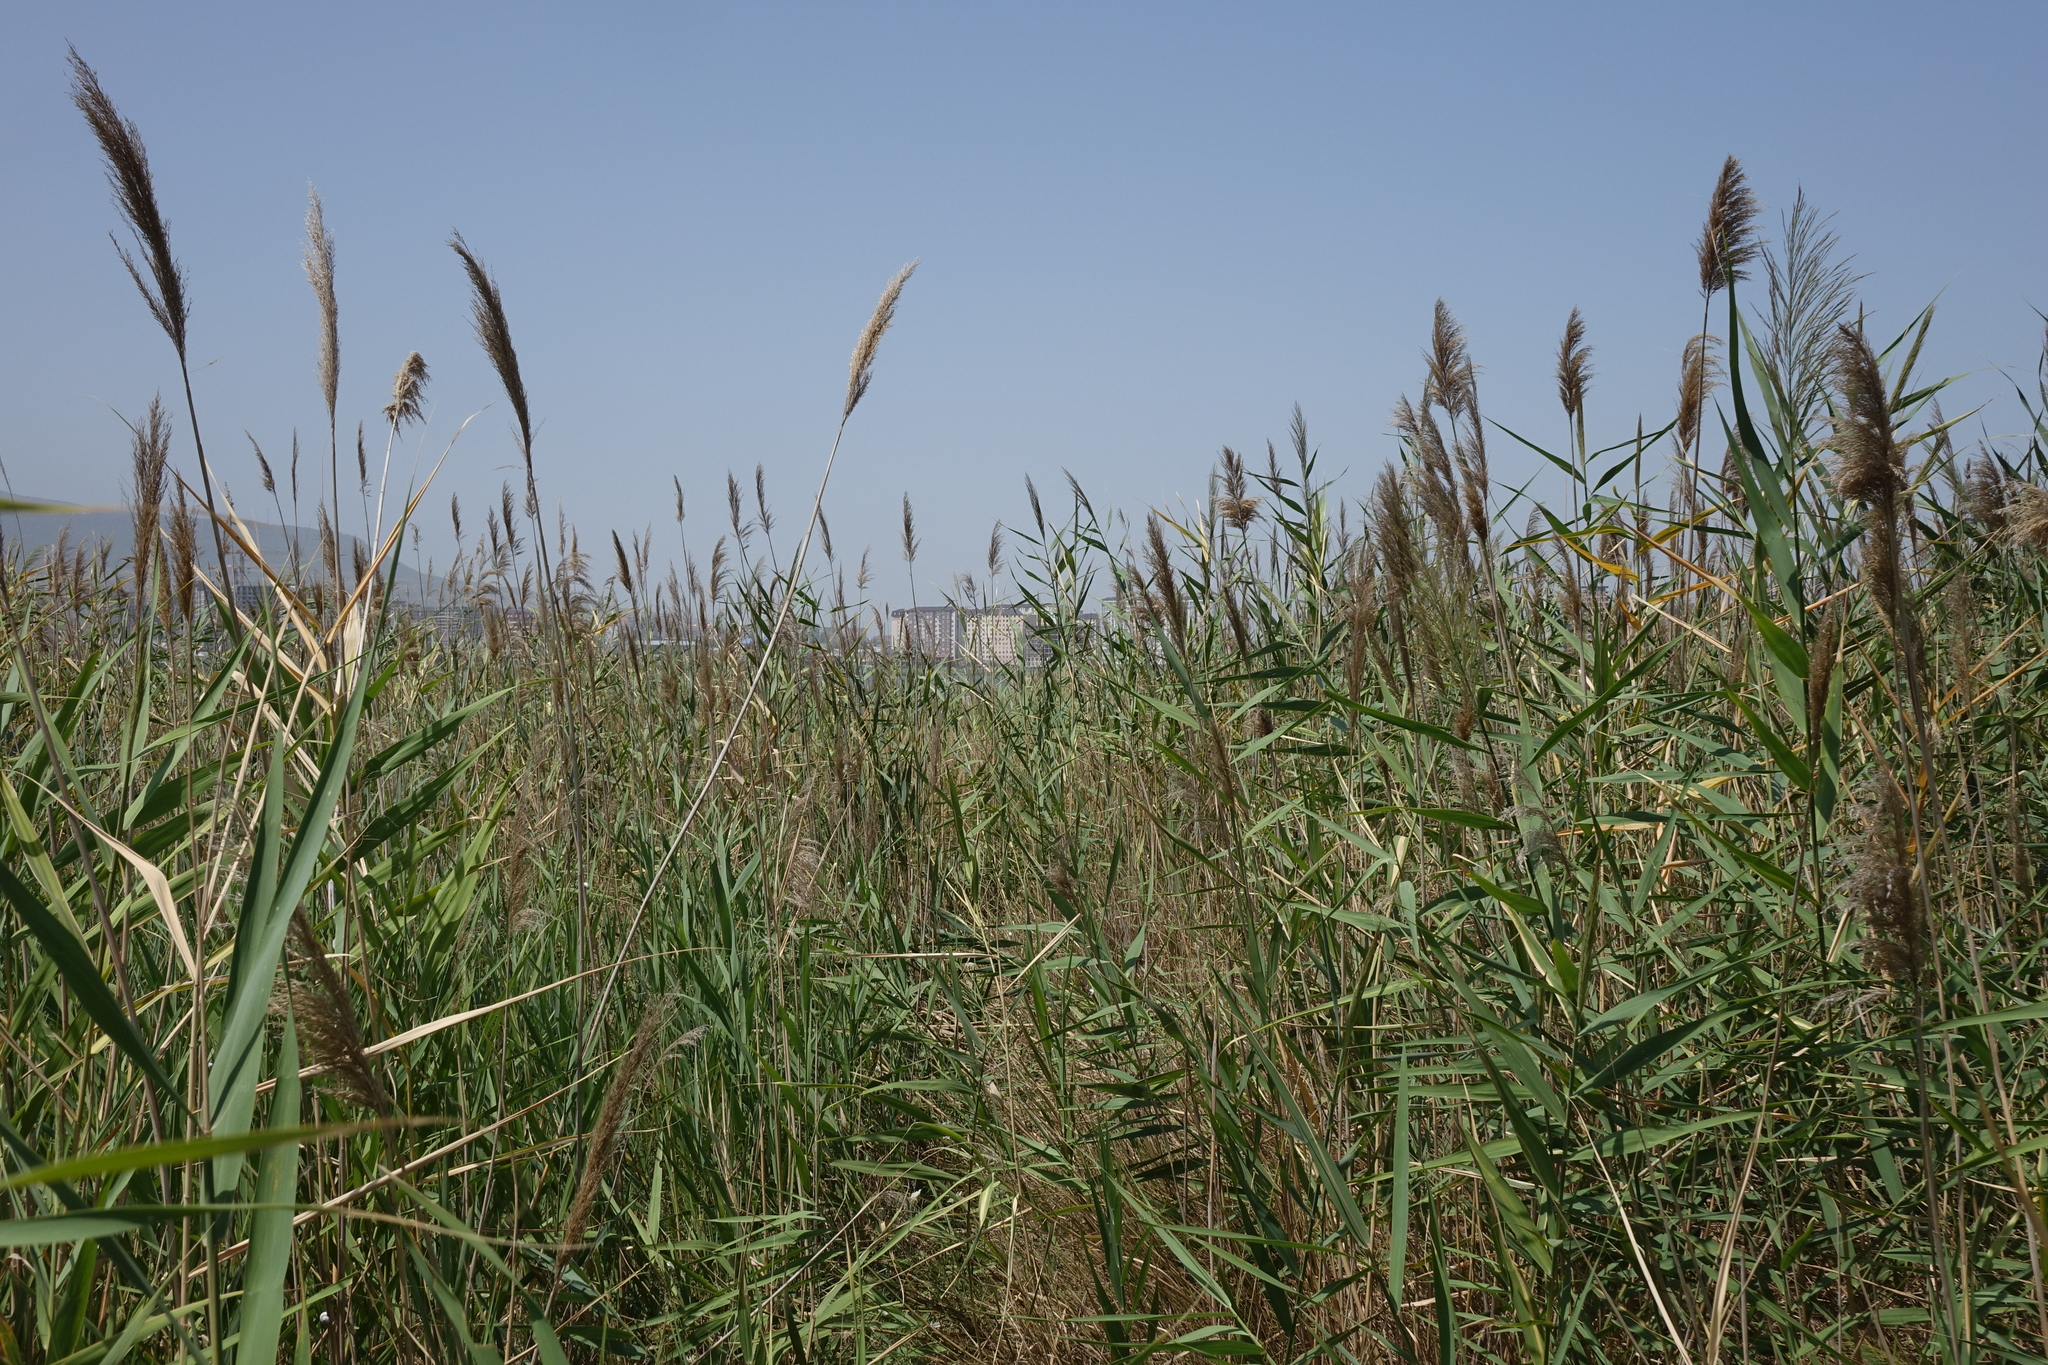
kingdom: Plantae
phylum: Tracheophyta
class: Liliopsida
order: Poales
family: Poaceae
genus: Phragmites
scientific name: Phragmites australis
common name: Common reed
